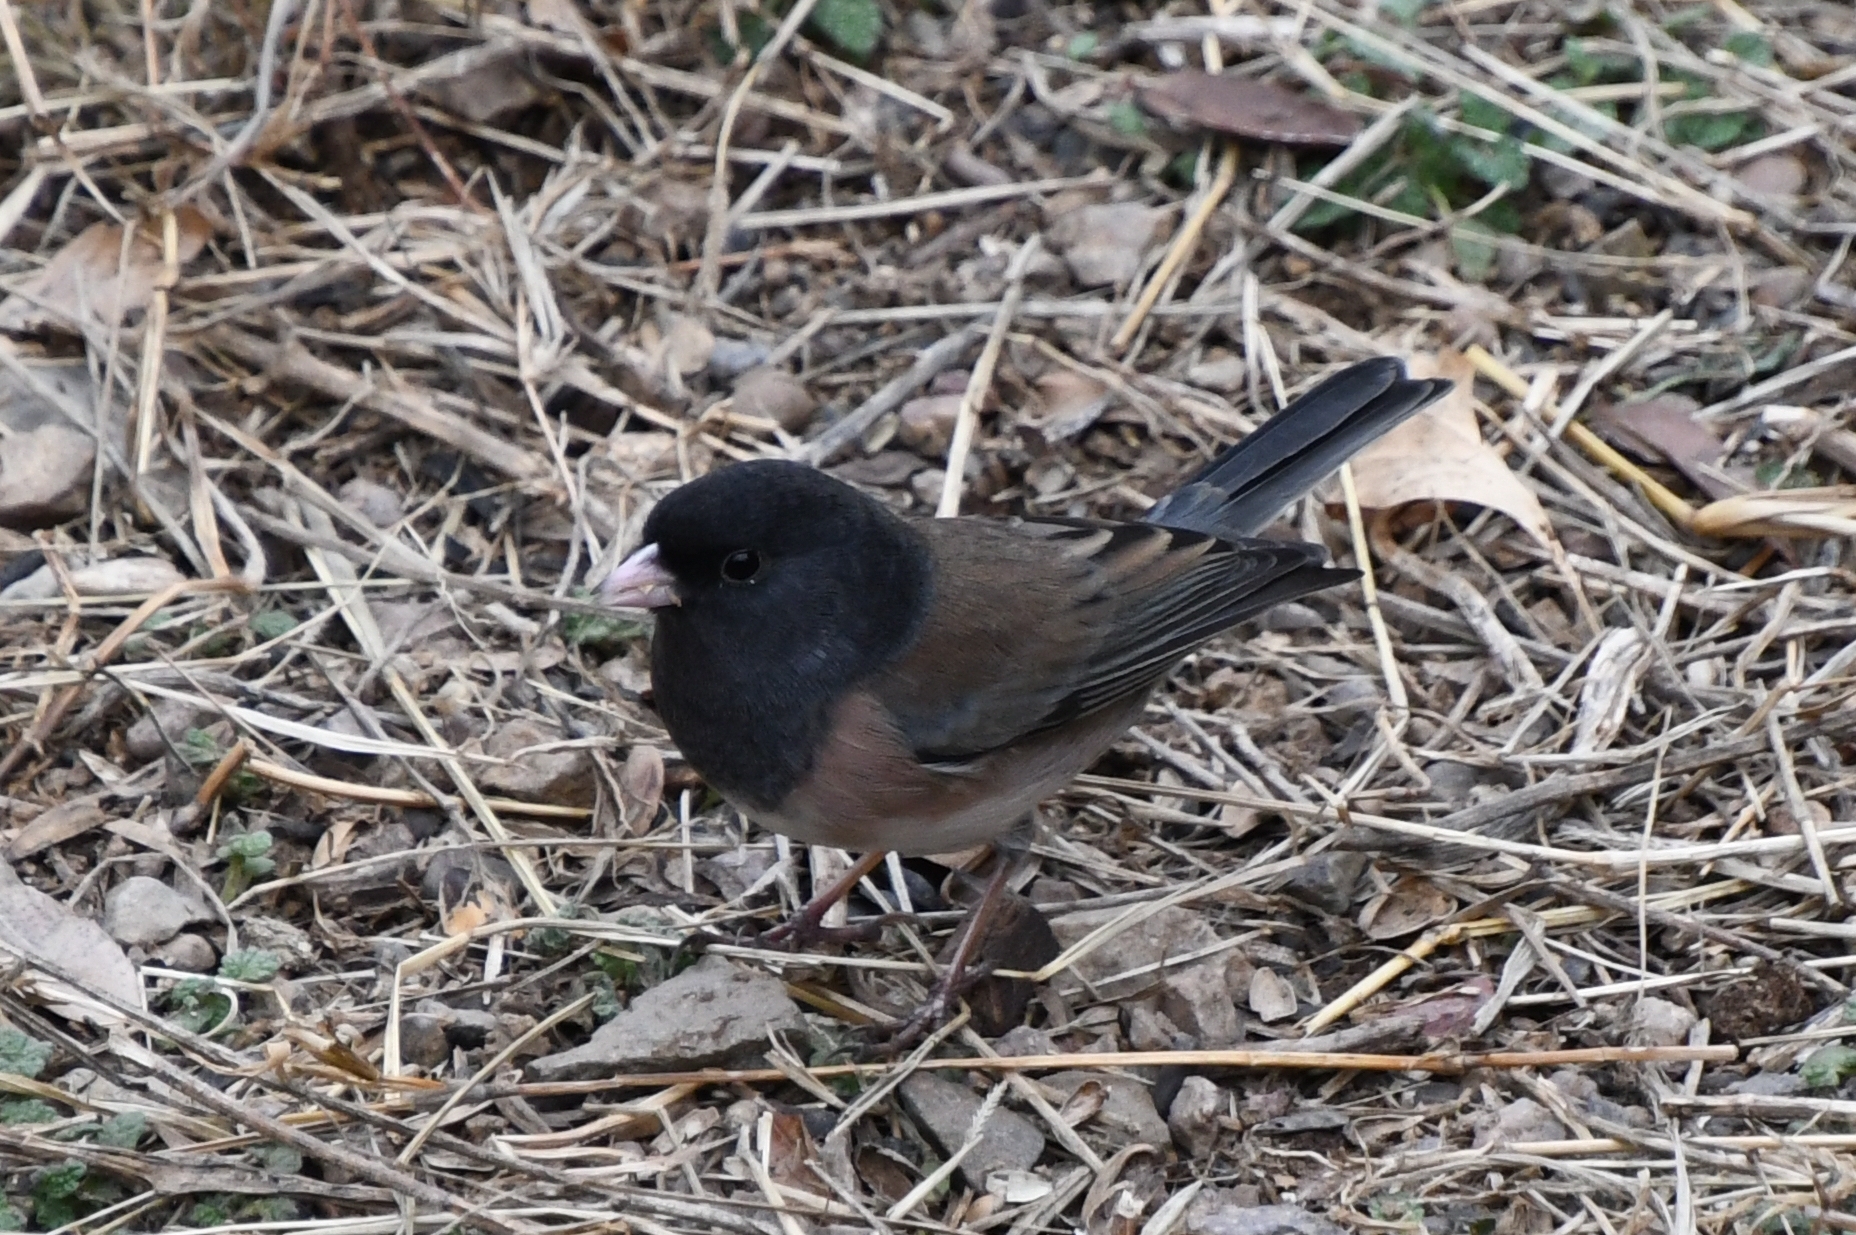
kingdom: Animalia
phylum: Chordata
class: Aves
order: Passeriformes
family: Passerellidae
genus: Junco
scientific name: Junco hyemalis
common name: Dark-eyed junco
